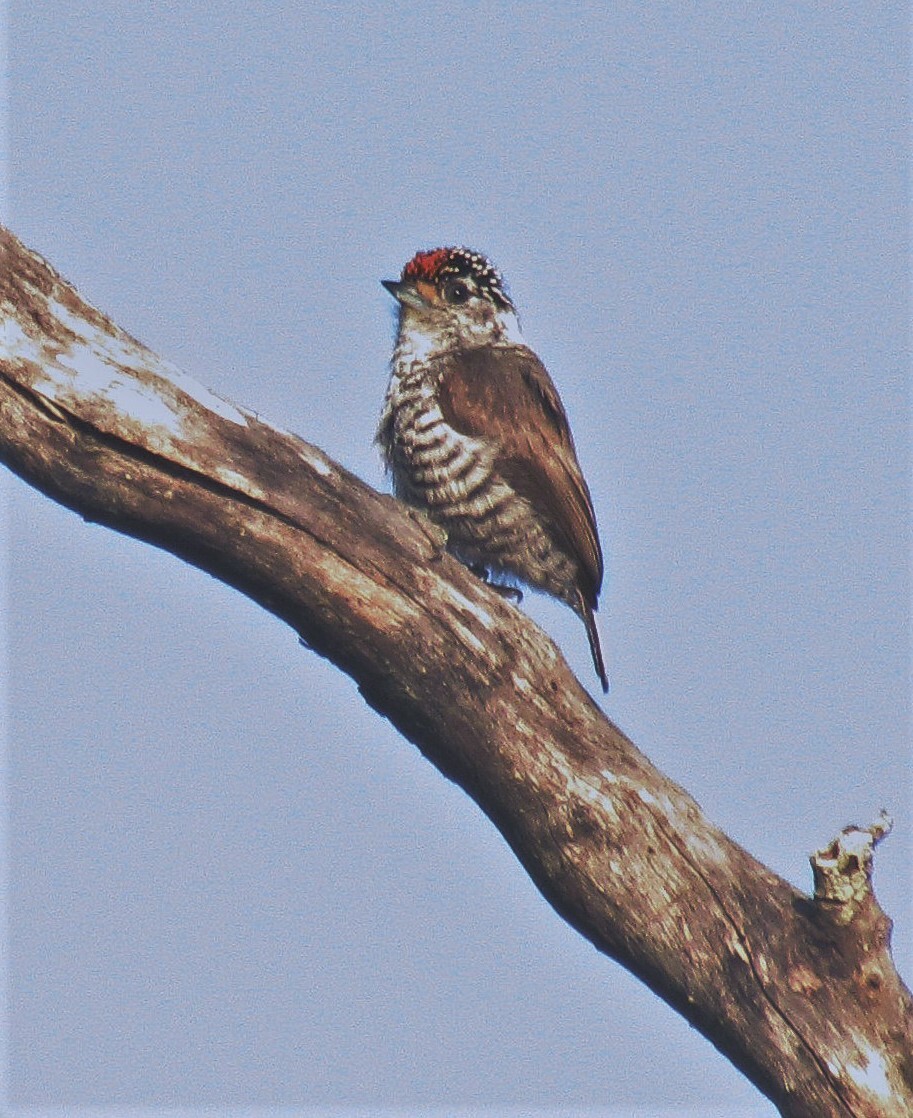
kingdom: Animalia
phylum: Chordata
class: Aves
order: Piciformes
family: Picidae
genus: Picumnus
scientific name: Picumnus cirratus
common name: White-barred piculet
